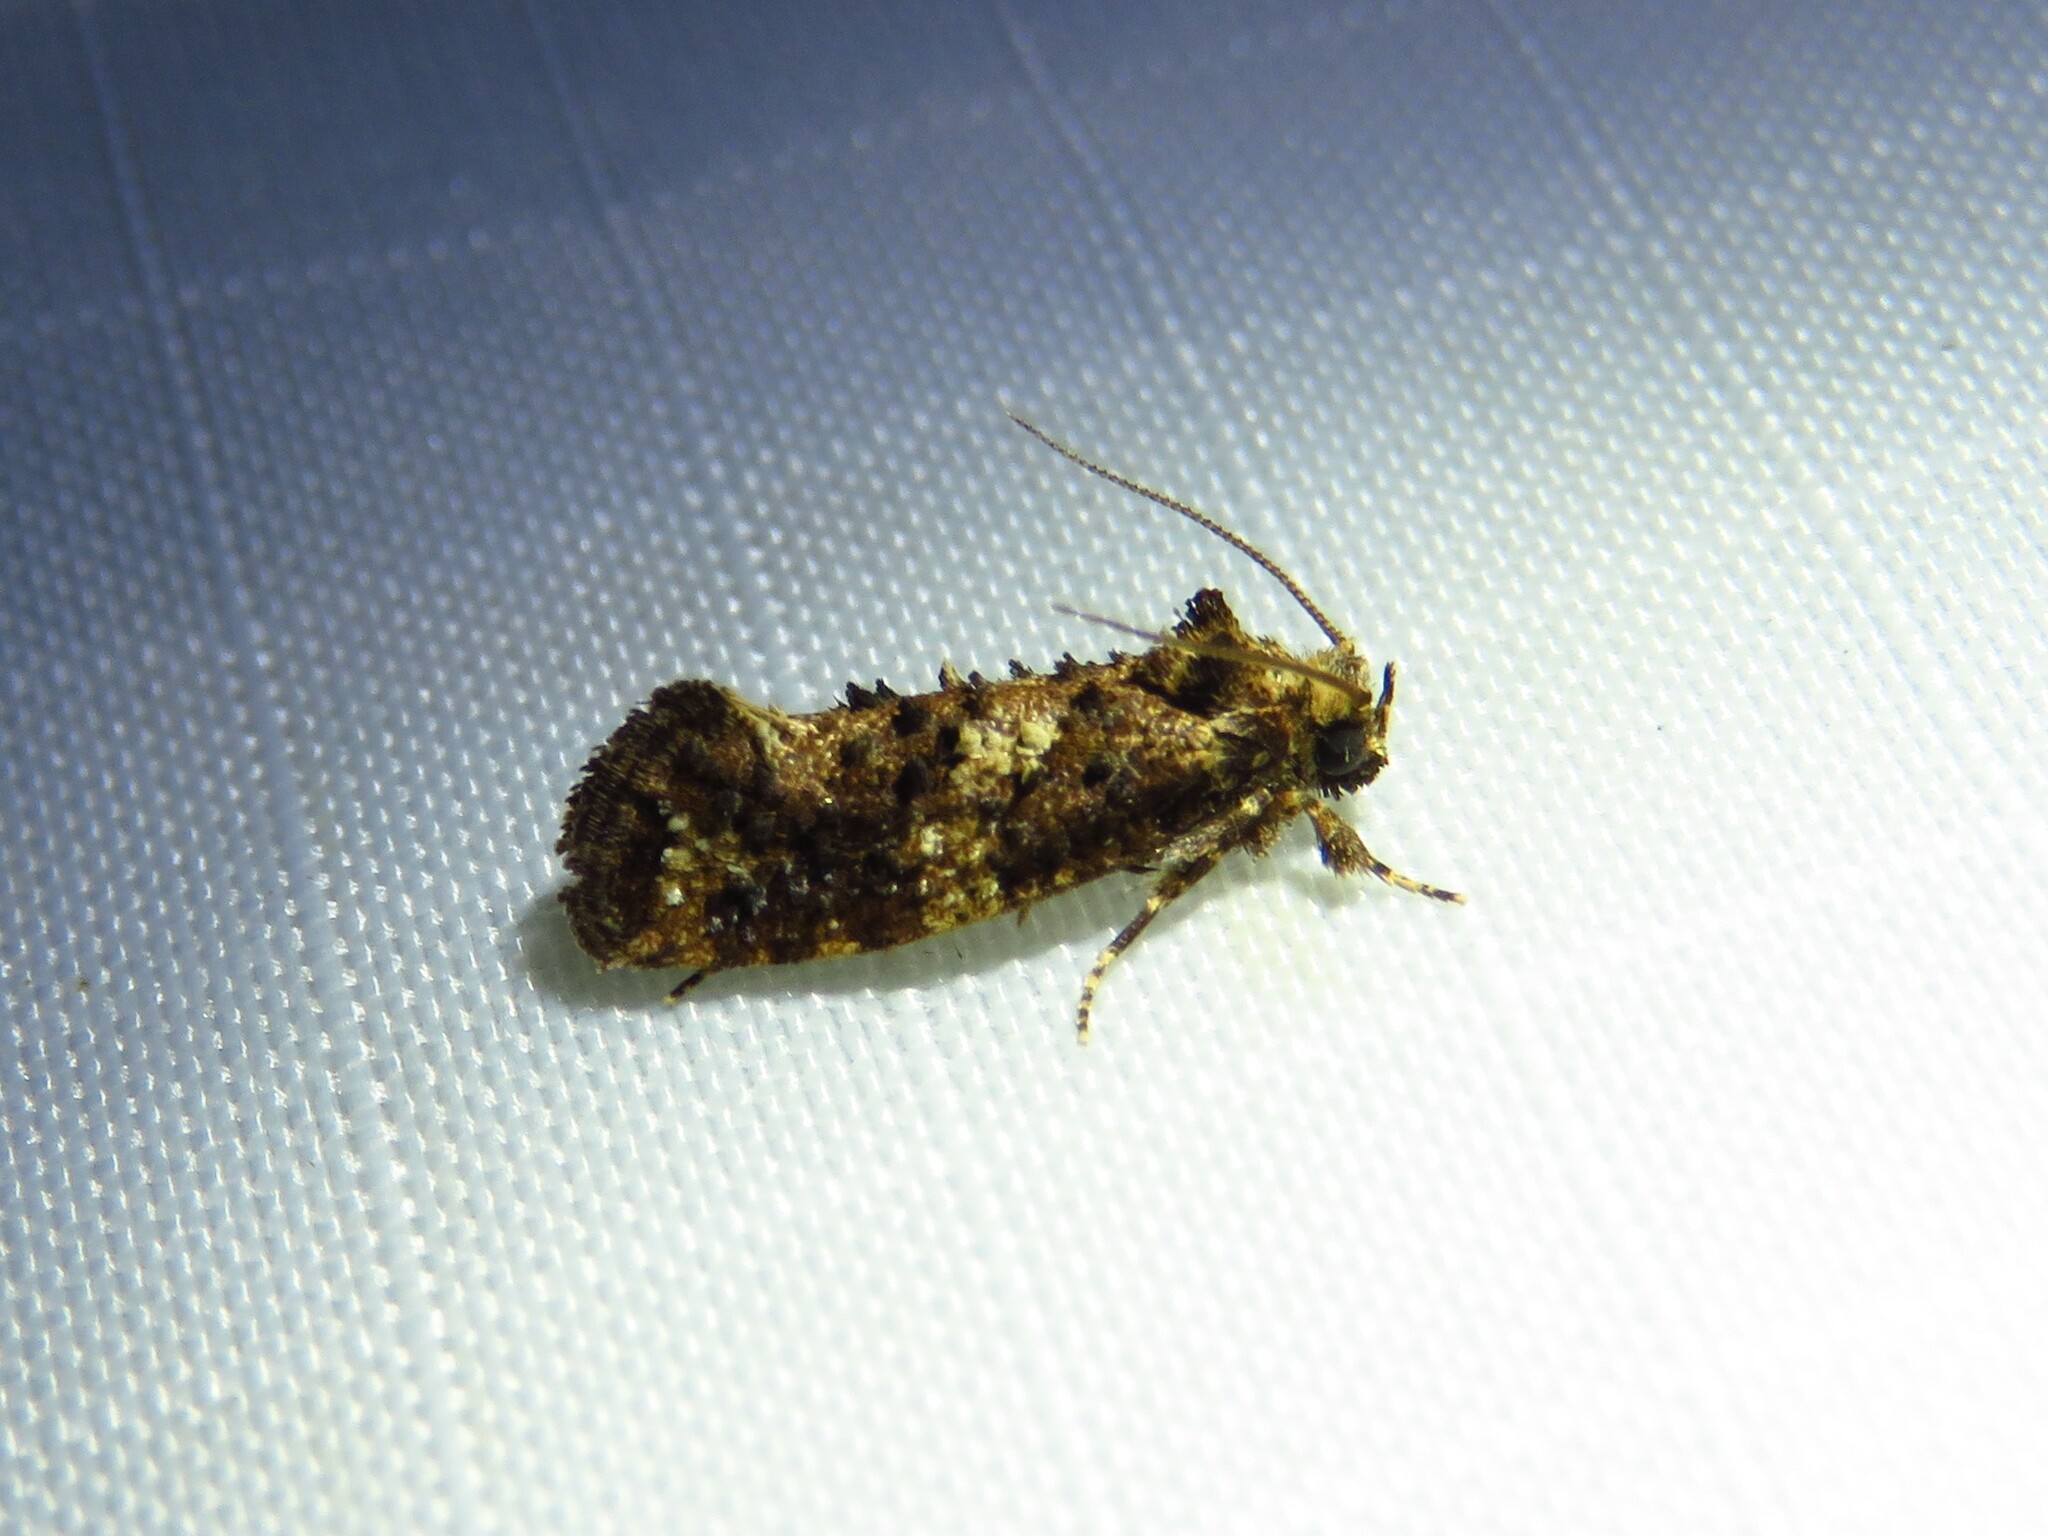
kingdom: Animalia
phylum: Arthropoda
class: Insecta
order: Lepidoptera
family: Tineidae
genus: Acrolophus
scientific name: Acrolophus cressoni
